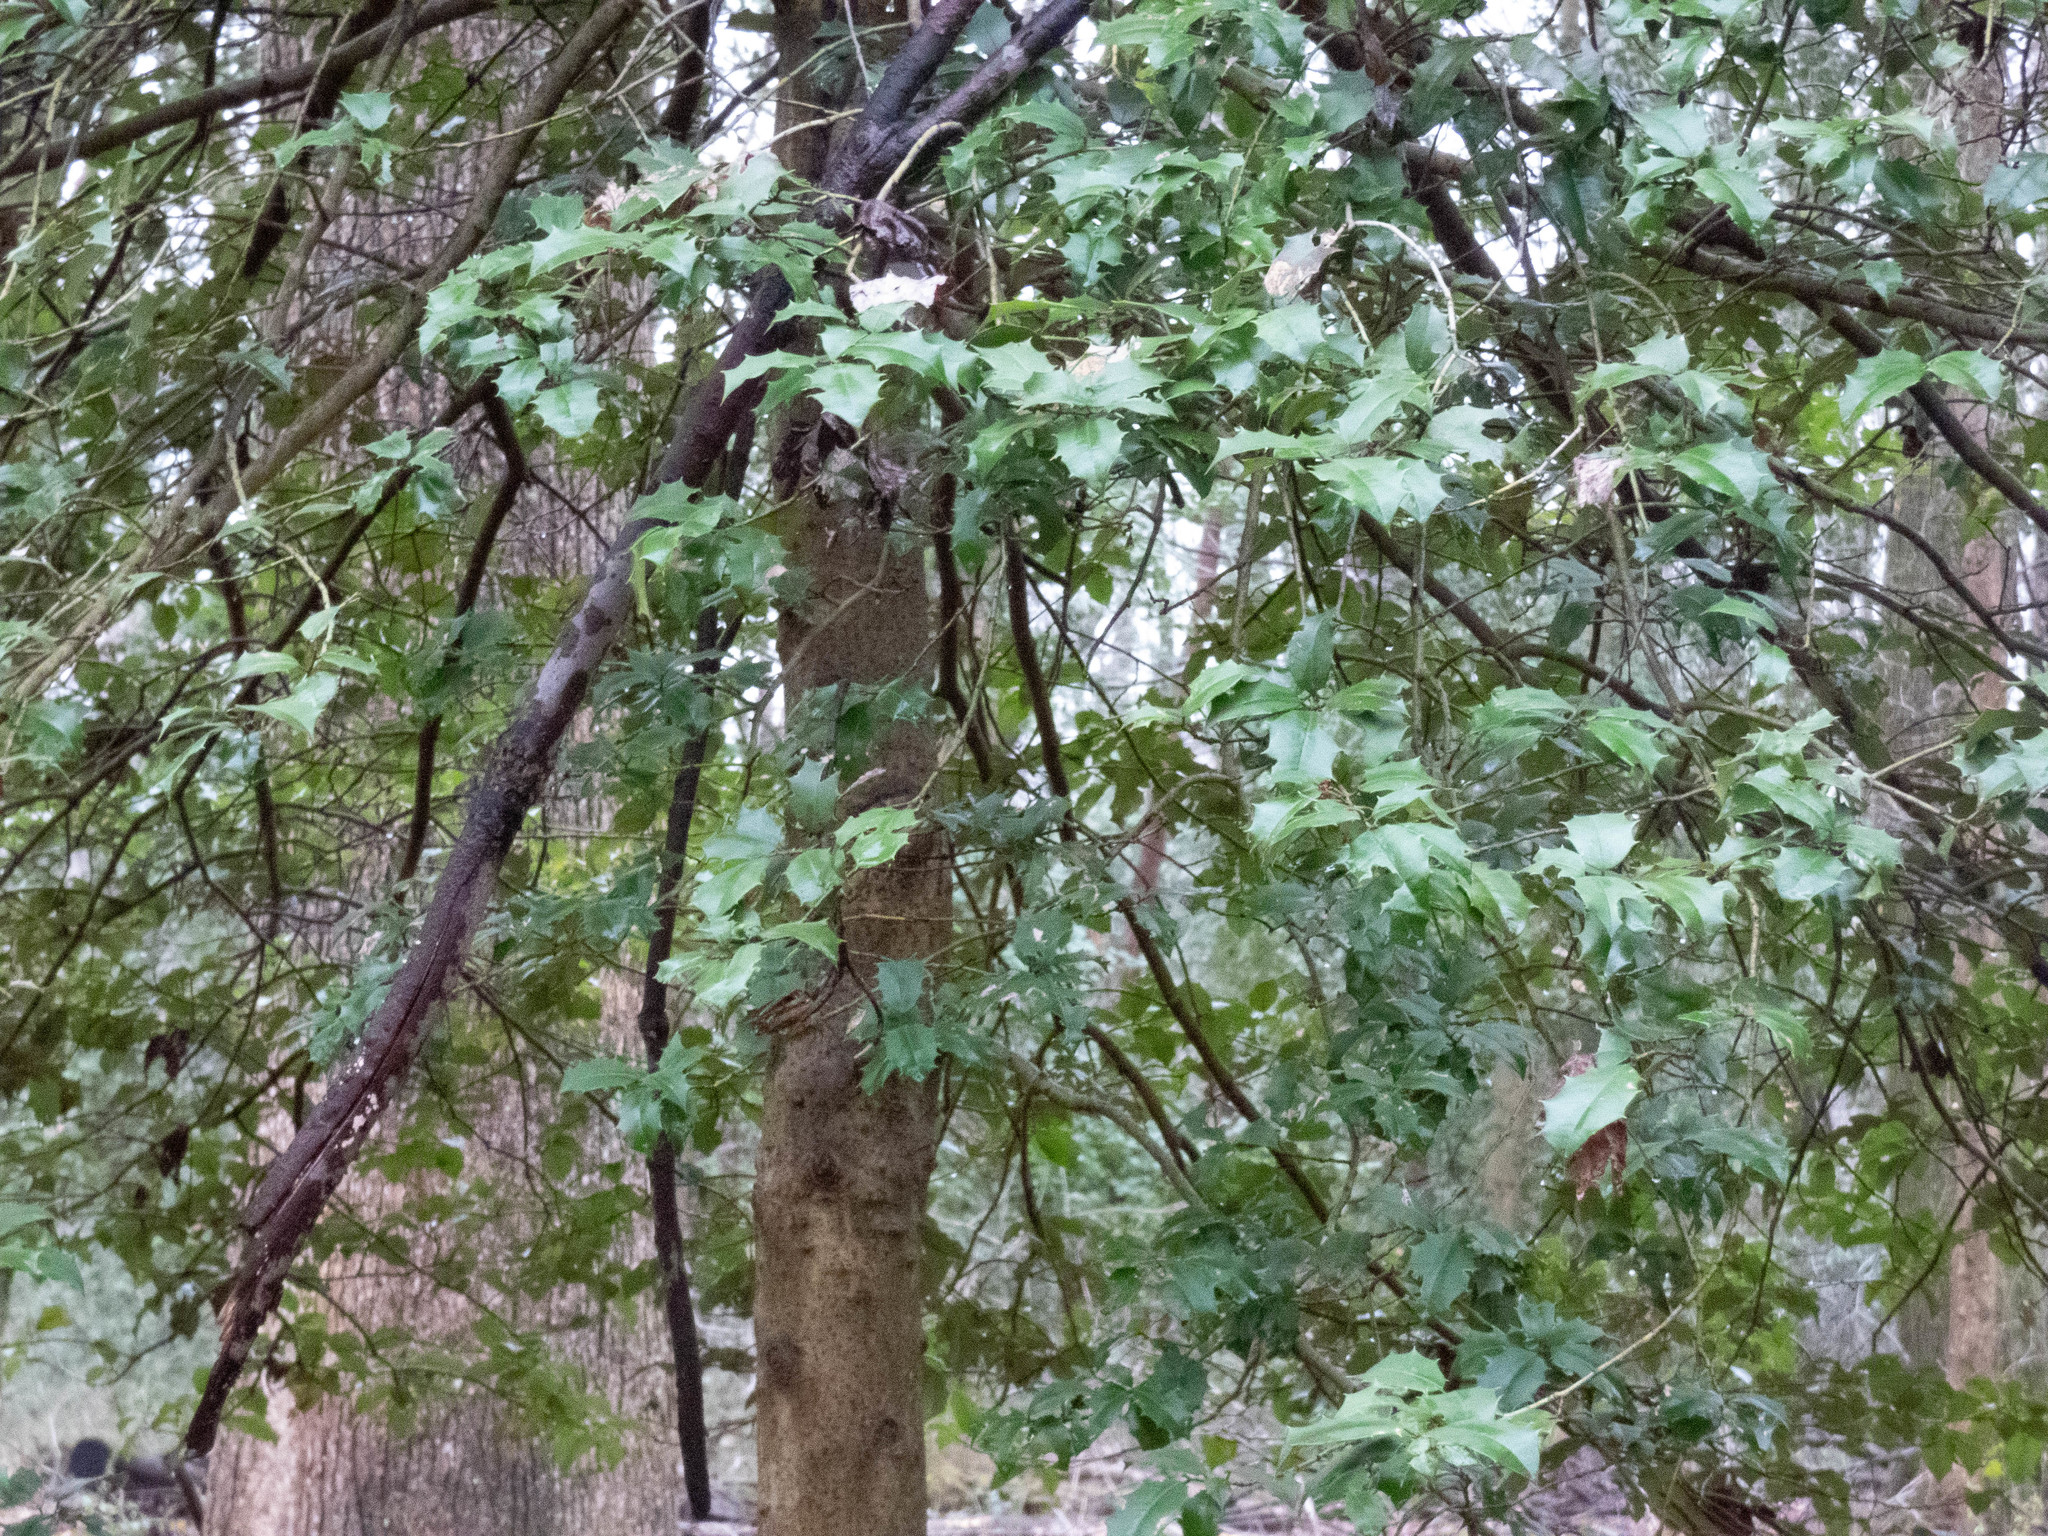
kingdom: Plantae
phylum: Tracheophyta
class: Magnoliopsida
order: Aquifoliales
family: Aquifoliaceae
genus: Ilex
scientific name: Ilex opaca
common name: American holly
